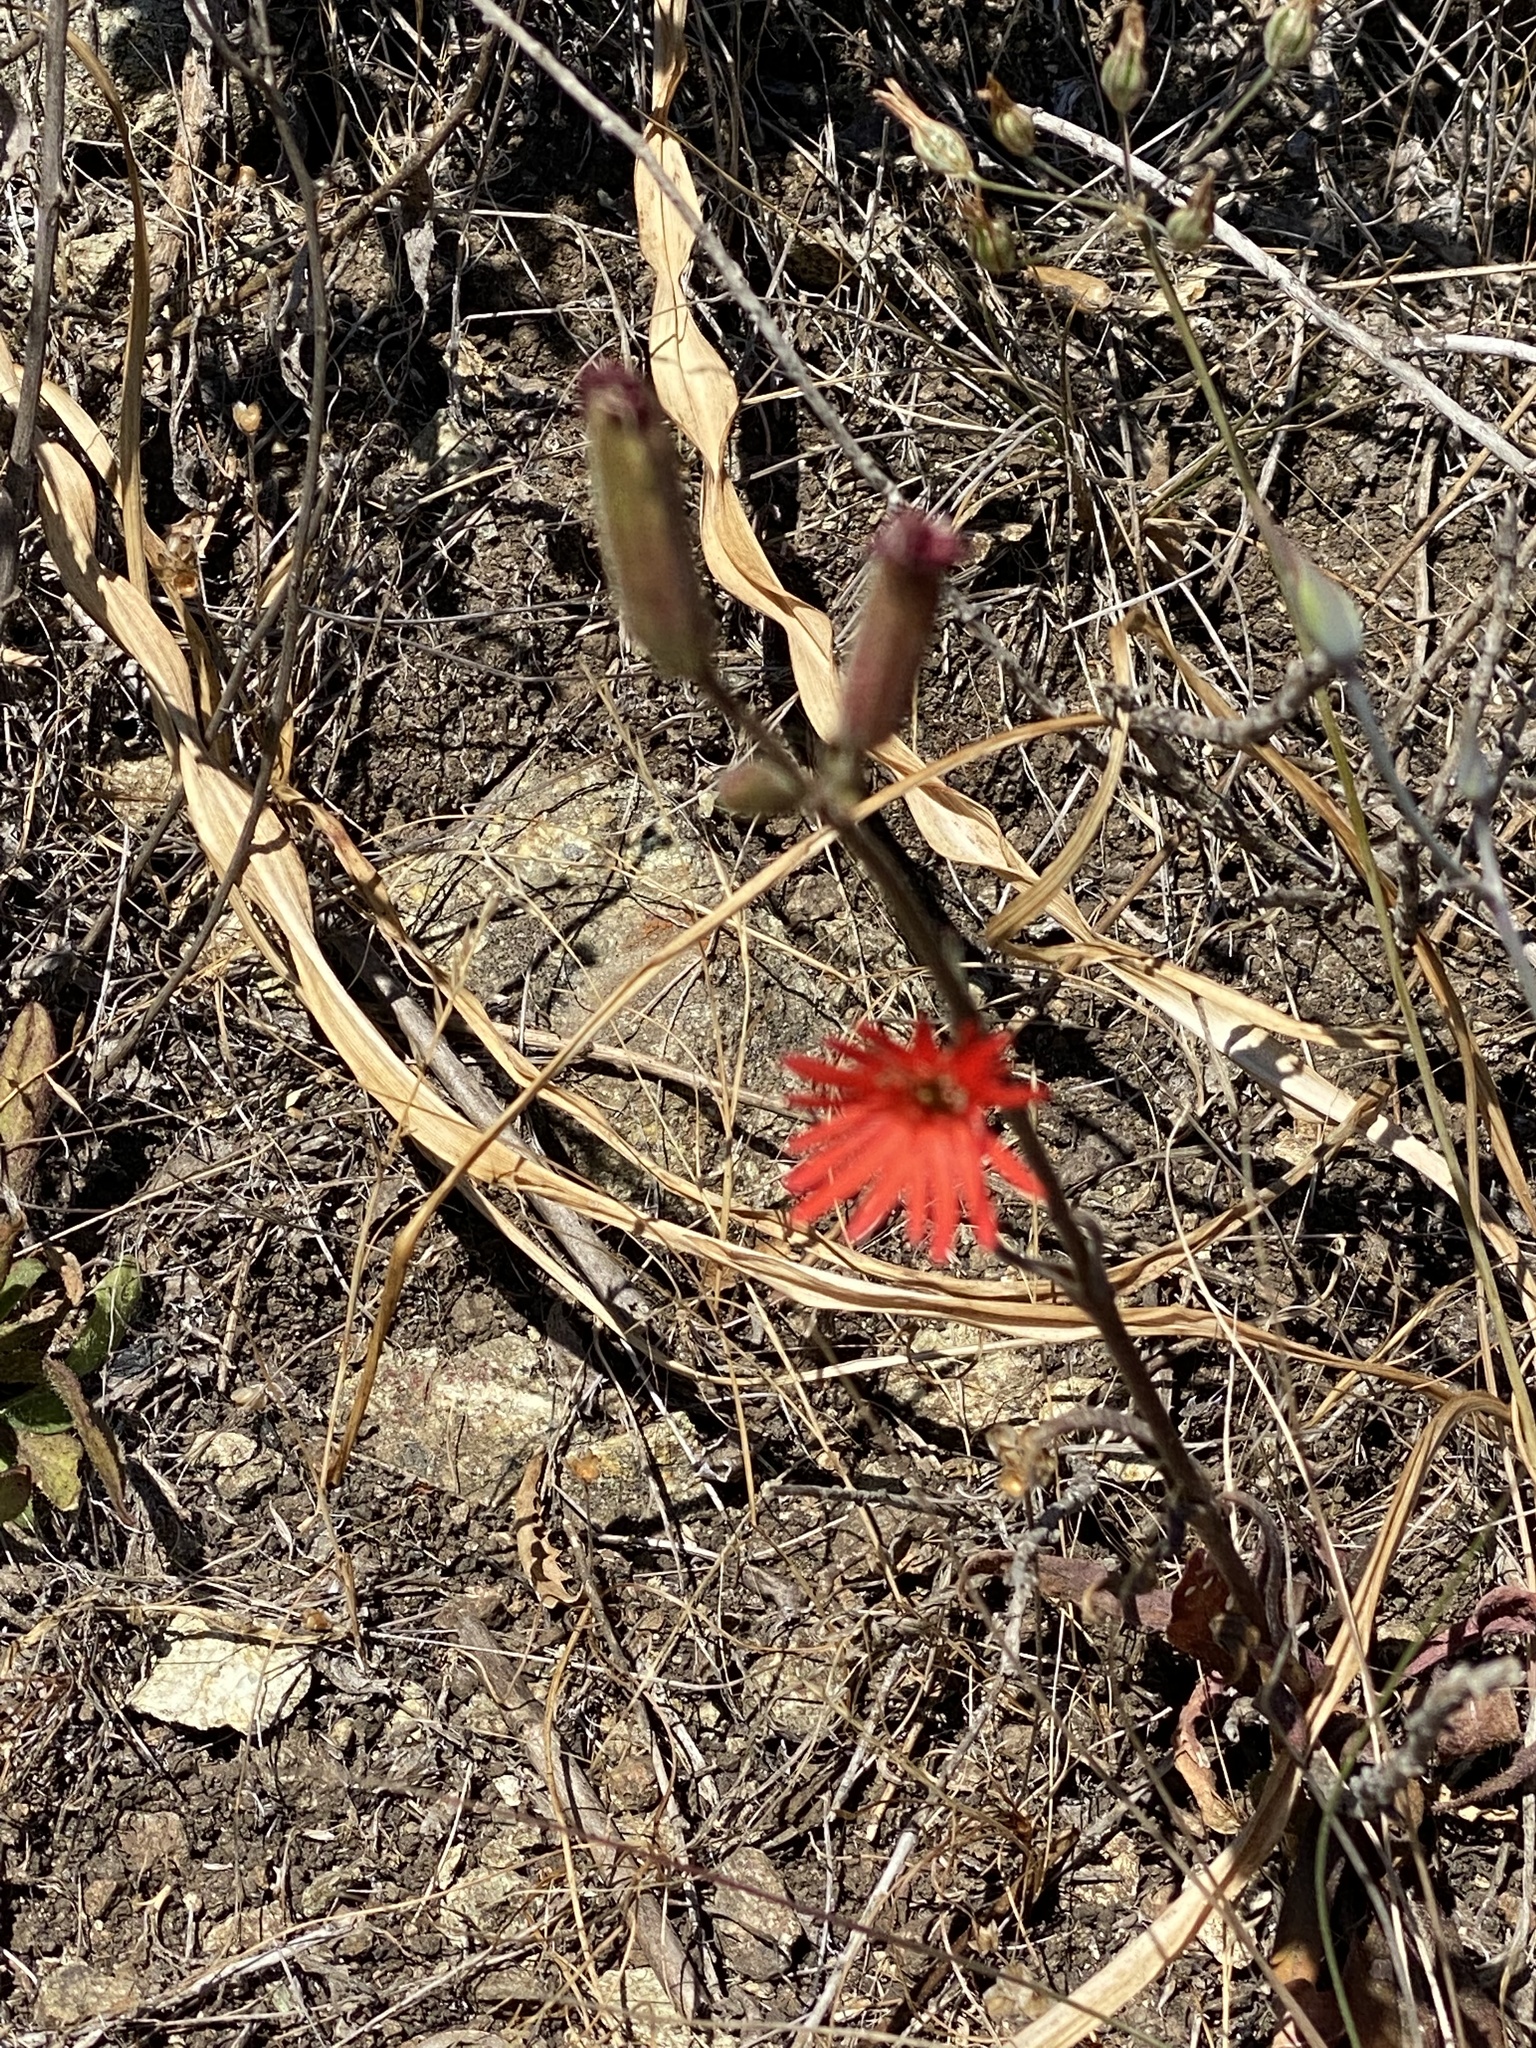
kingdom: Plantae
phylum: Tracheophyta
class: Magnoliopsida
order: Caryophyllales
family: Caryophyllaceae
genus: Silene
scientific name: Silene laciniata
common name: Indian-pink
